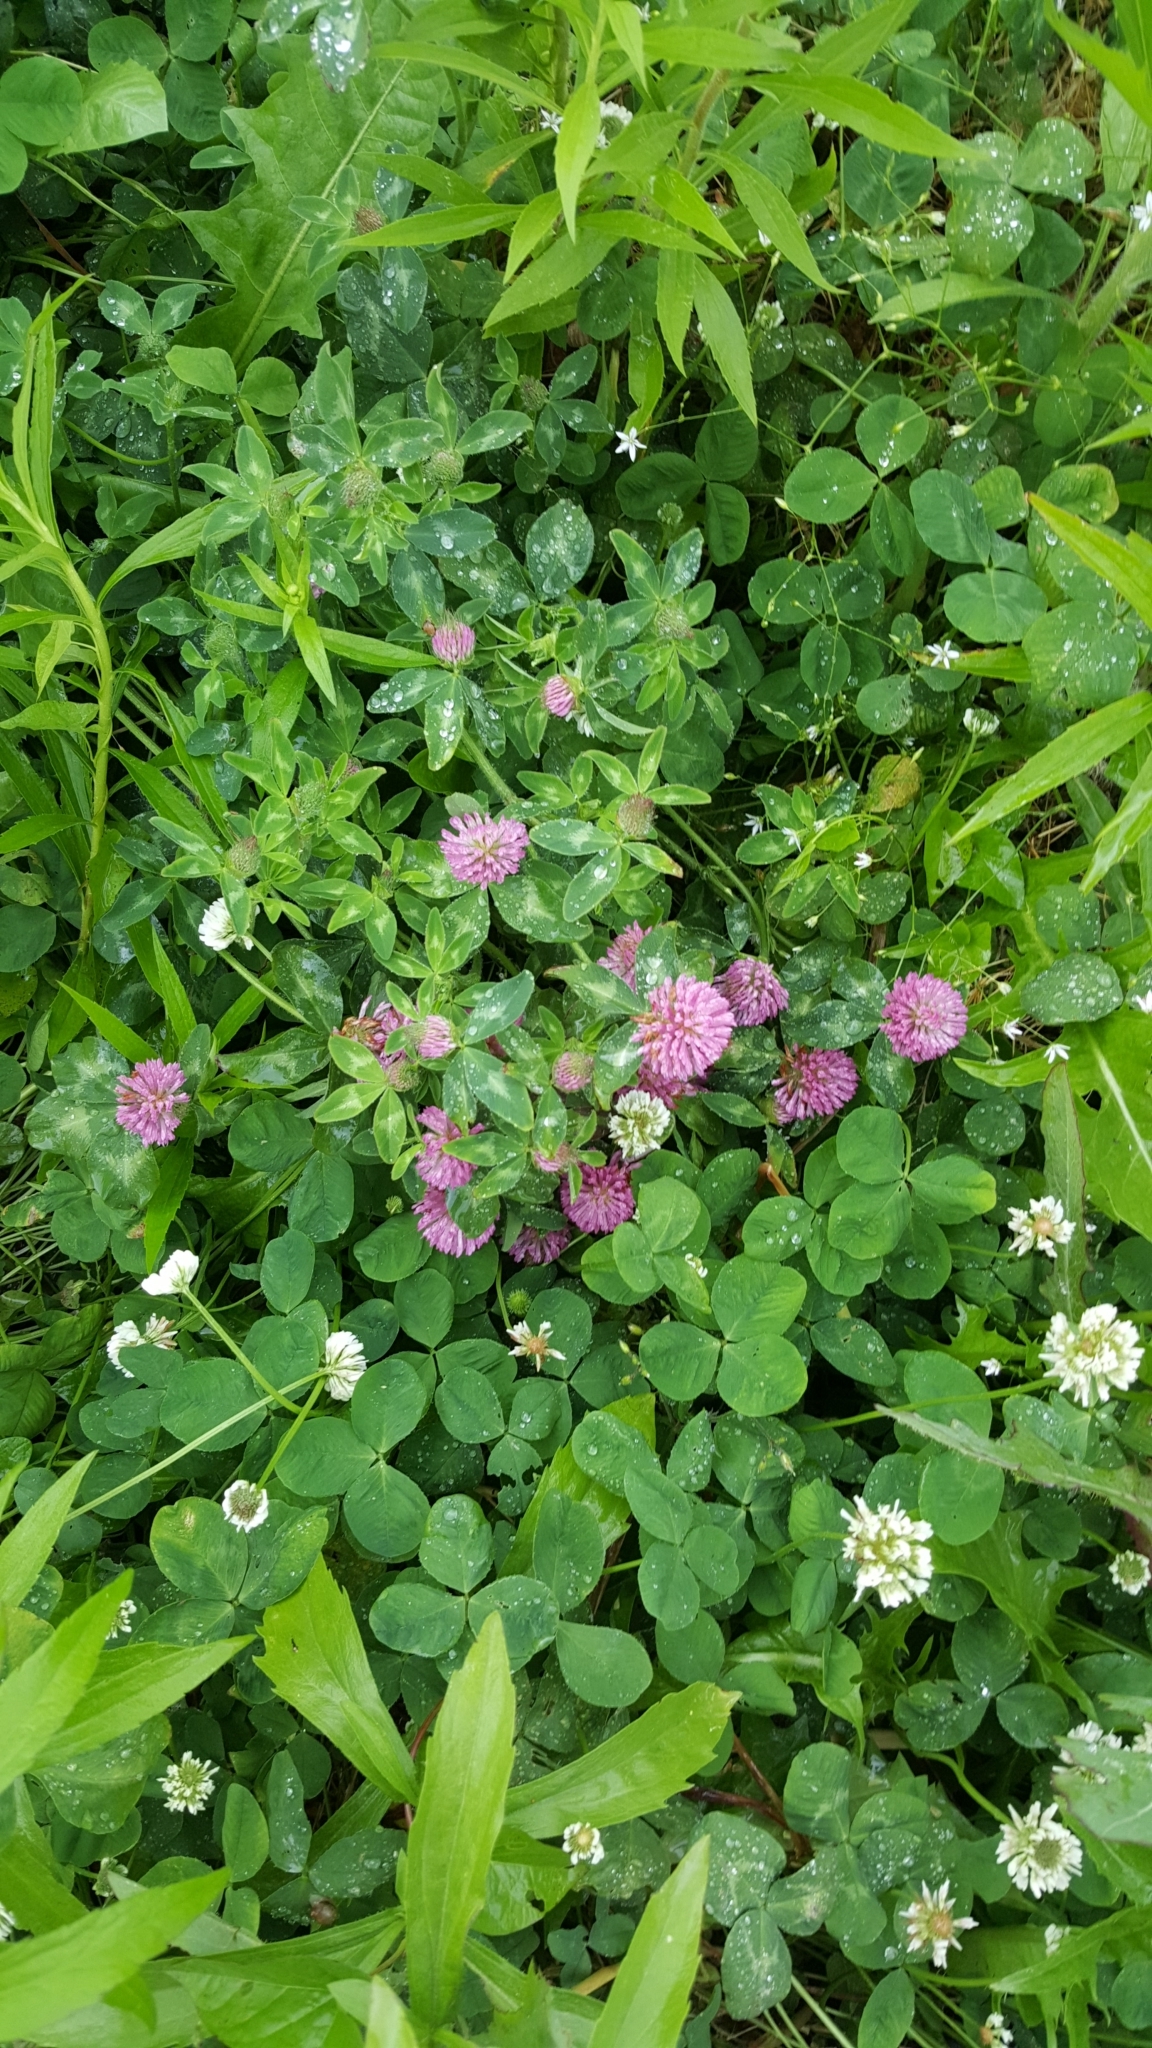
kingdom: Plantae
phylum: Tracheophyta
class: Magnoliopsida
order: Fabales
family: Fabaceae
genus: Trifolium
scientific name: Trifolium pratense
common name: Red clover
